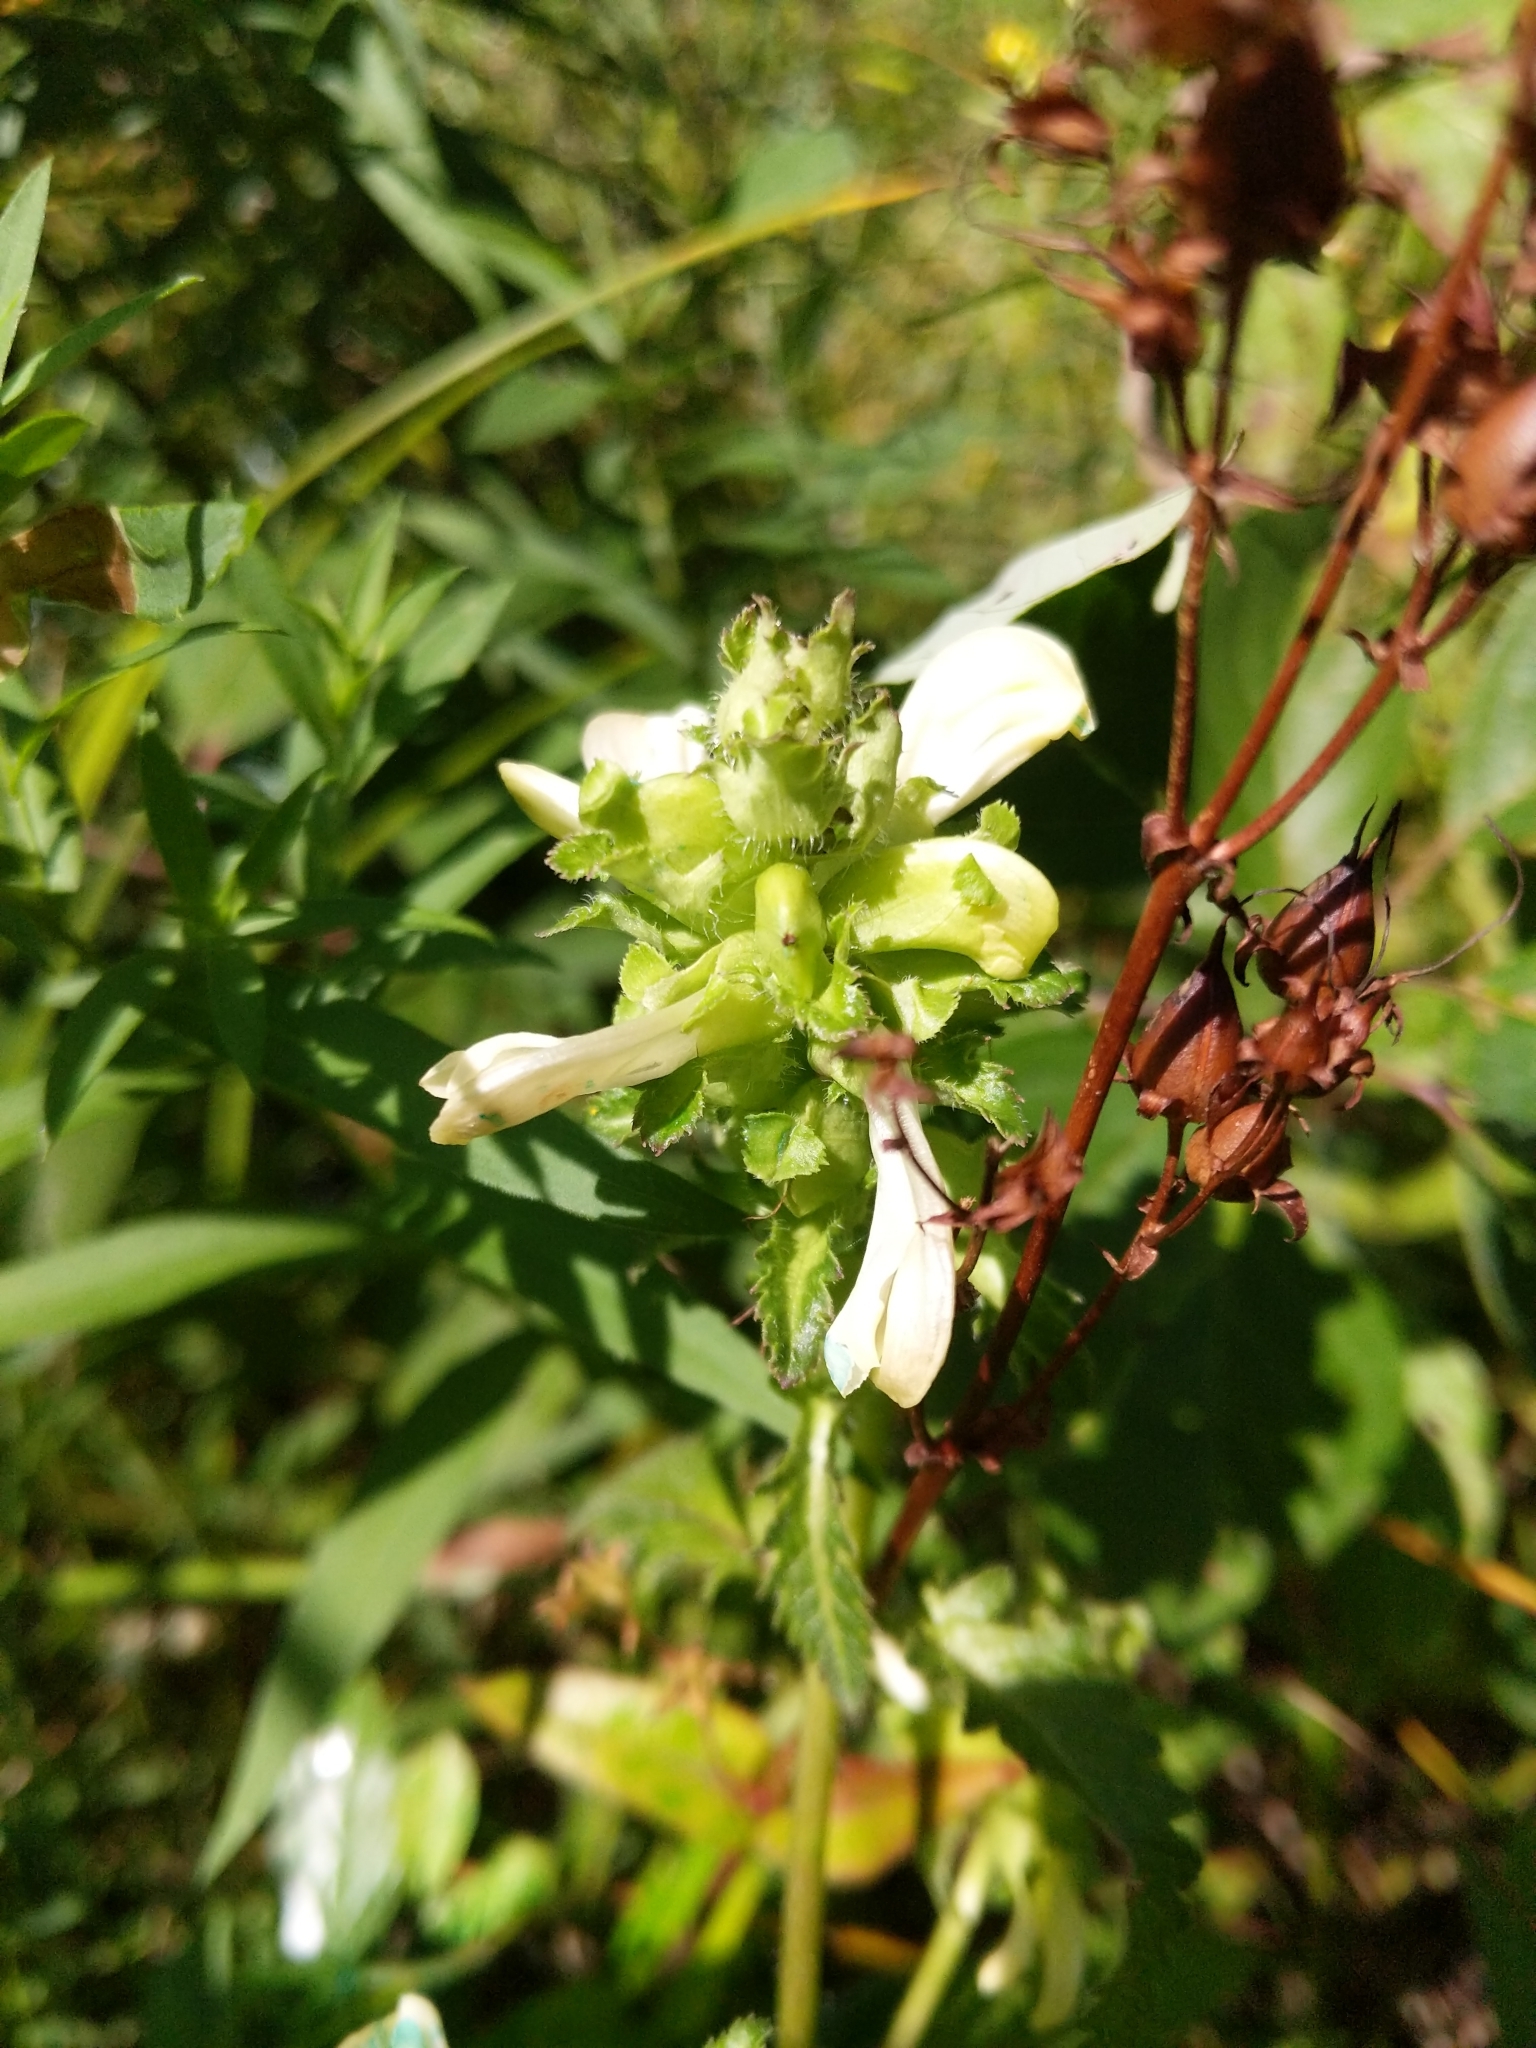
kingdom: Plantae
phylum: Tracheophyta
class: Magnoliopsida
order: Lamiales
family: Orobanchaceae
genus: Pedicularis
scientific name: Pedicularis lanceolata
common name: Swamp lousewort
